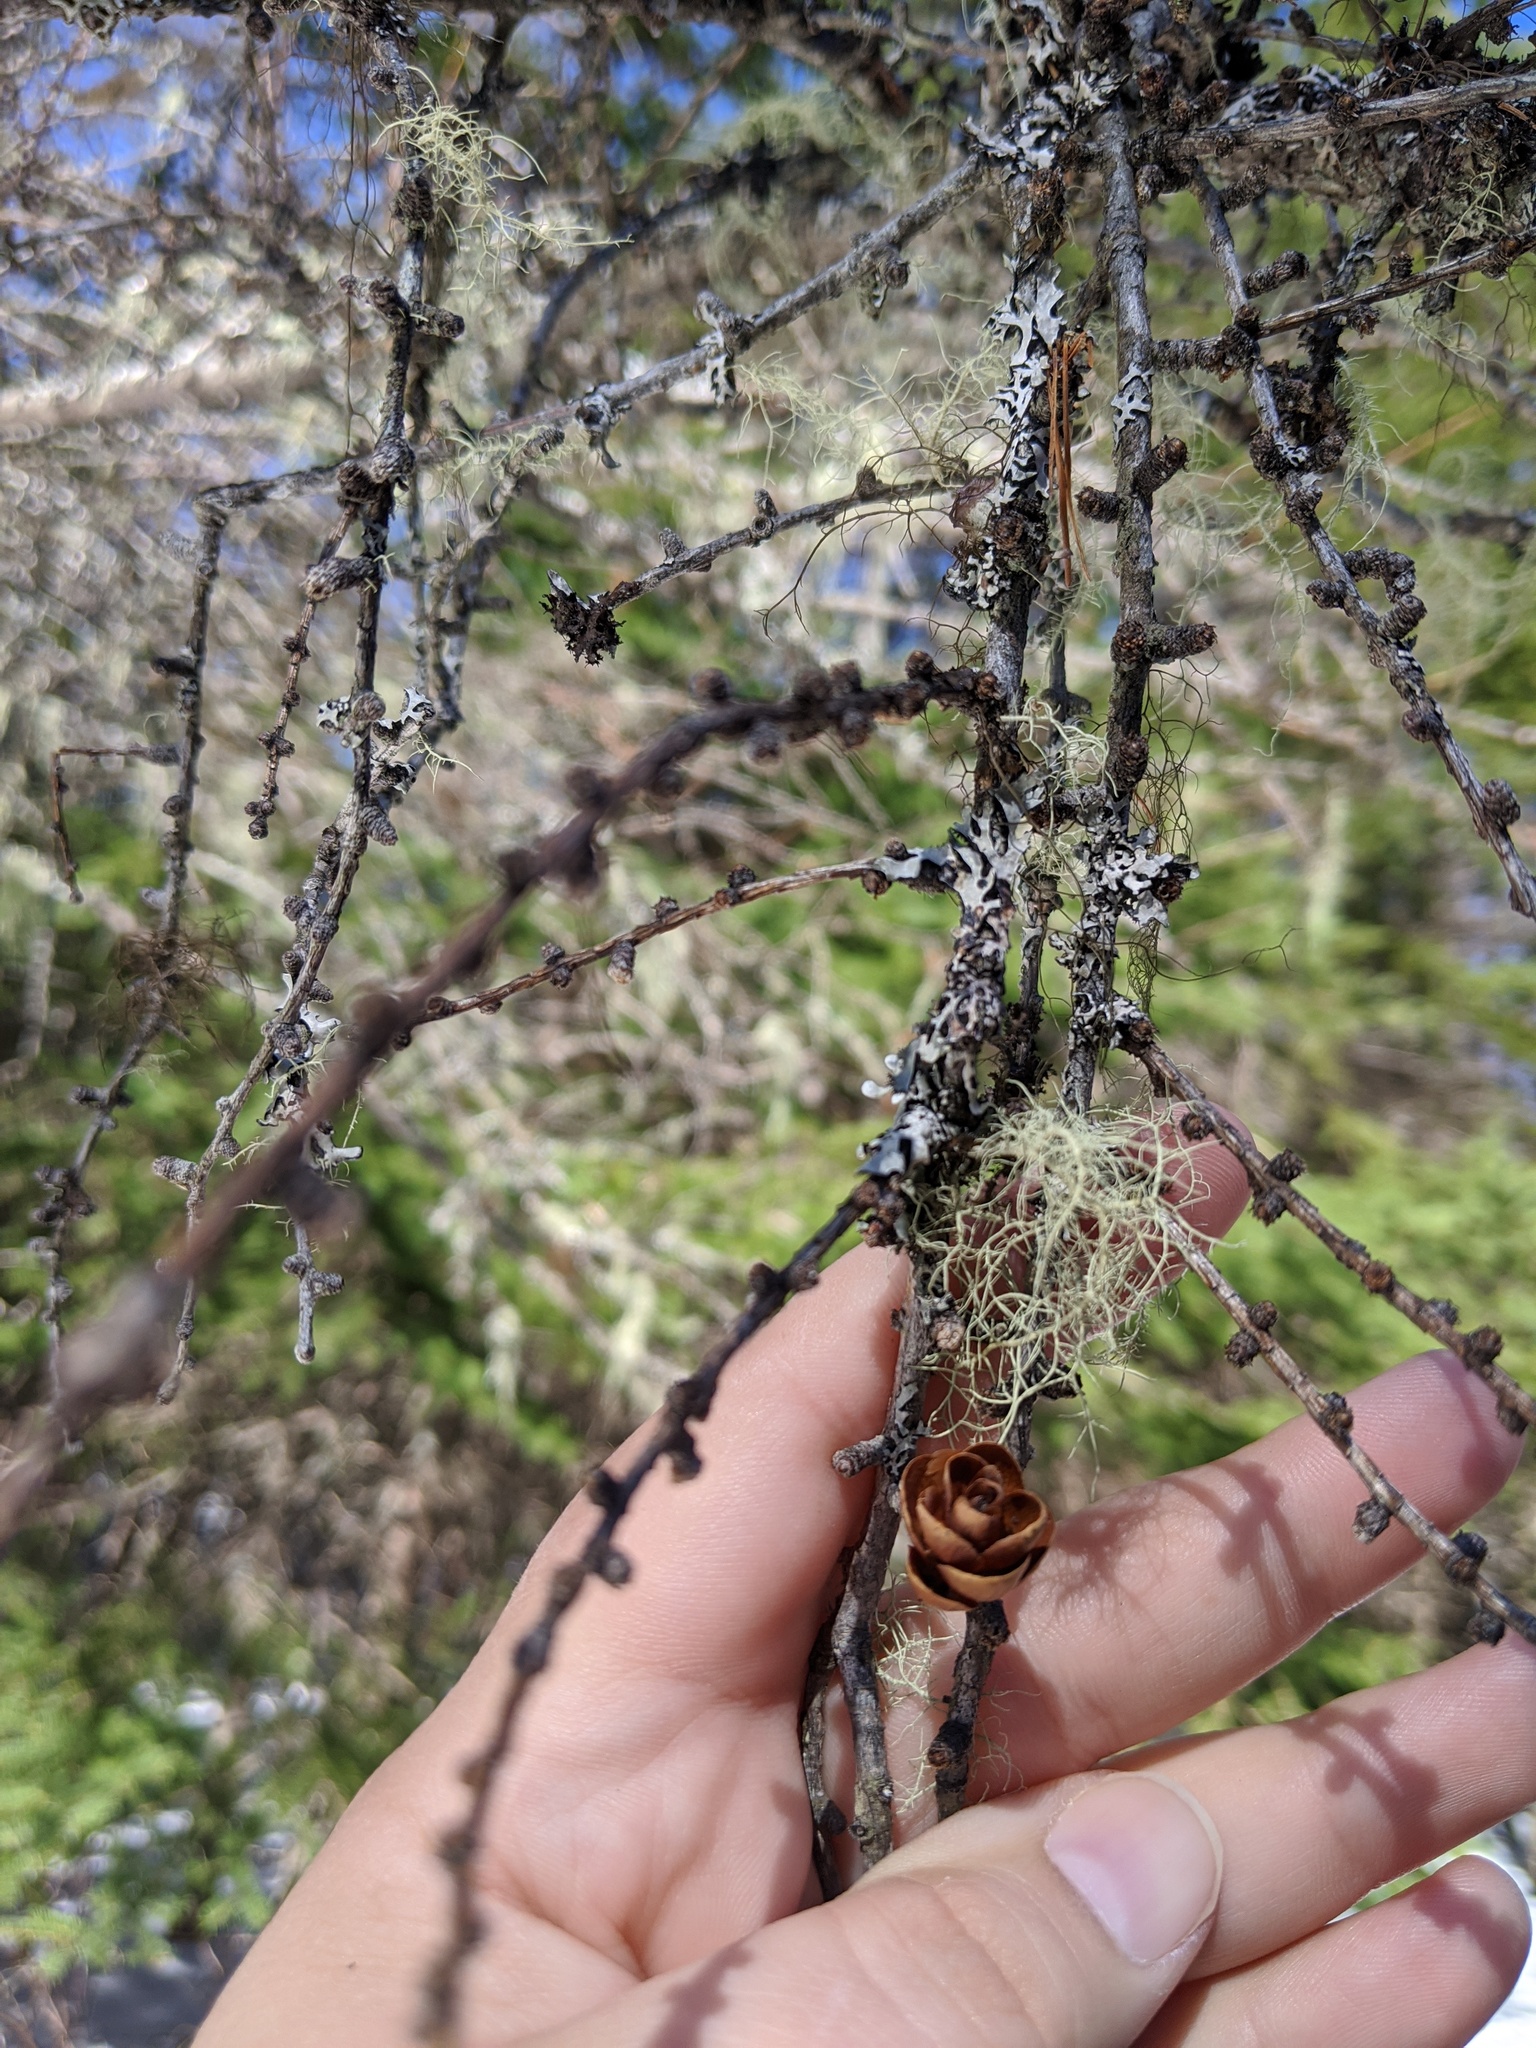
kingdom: Plantae
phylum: Tracheophyta
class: Pinopsida
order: Pinales
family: Pinaceae
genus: Larix
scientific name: Larix laricina
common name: American larch
